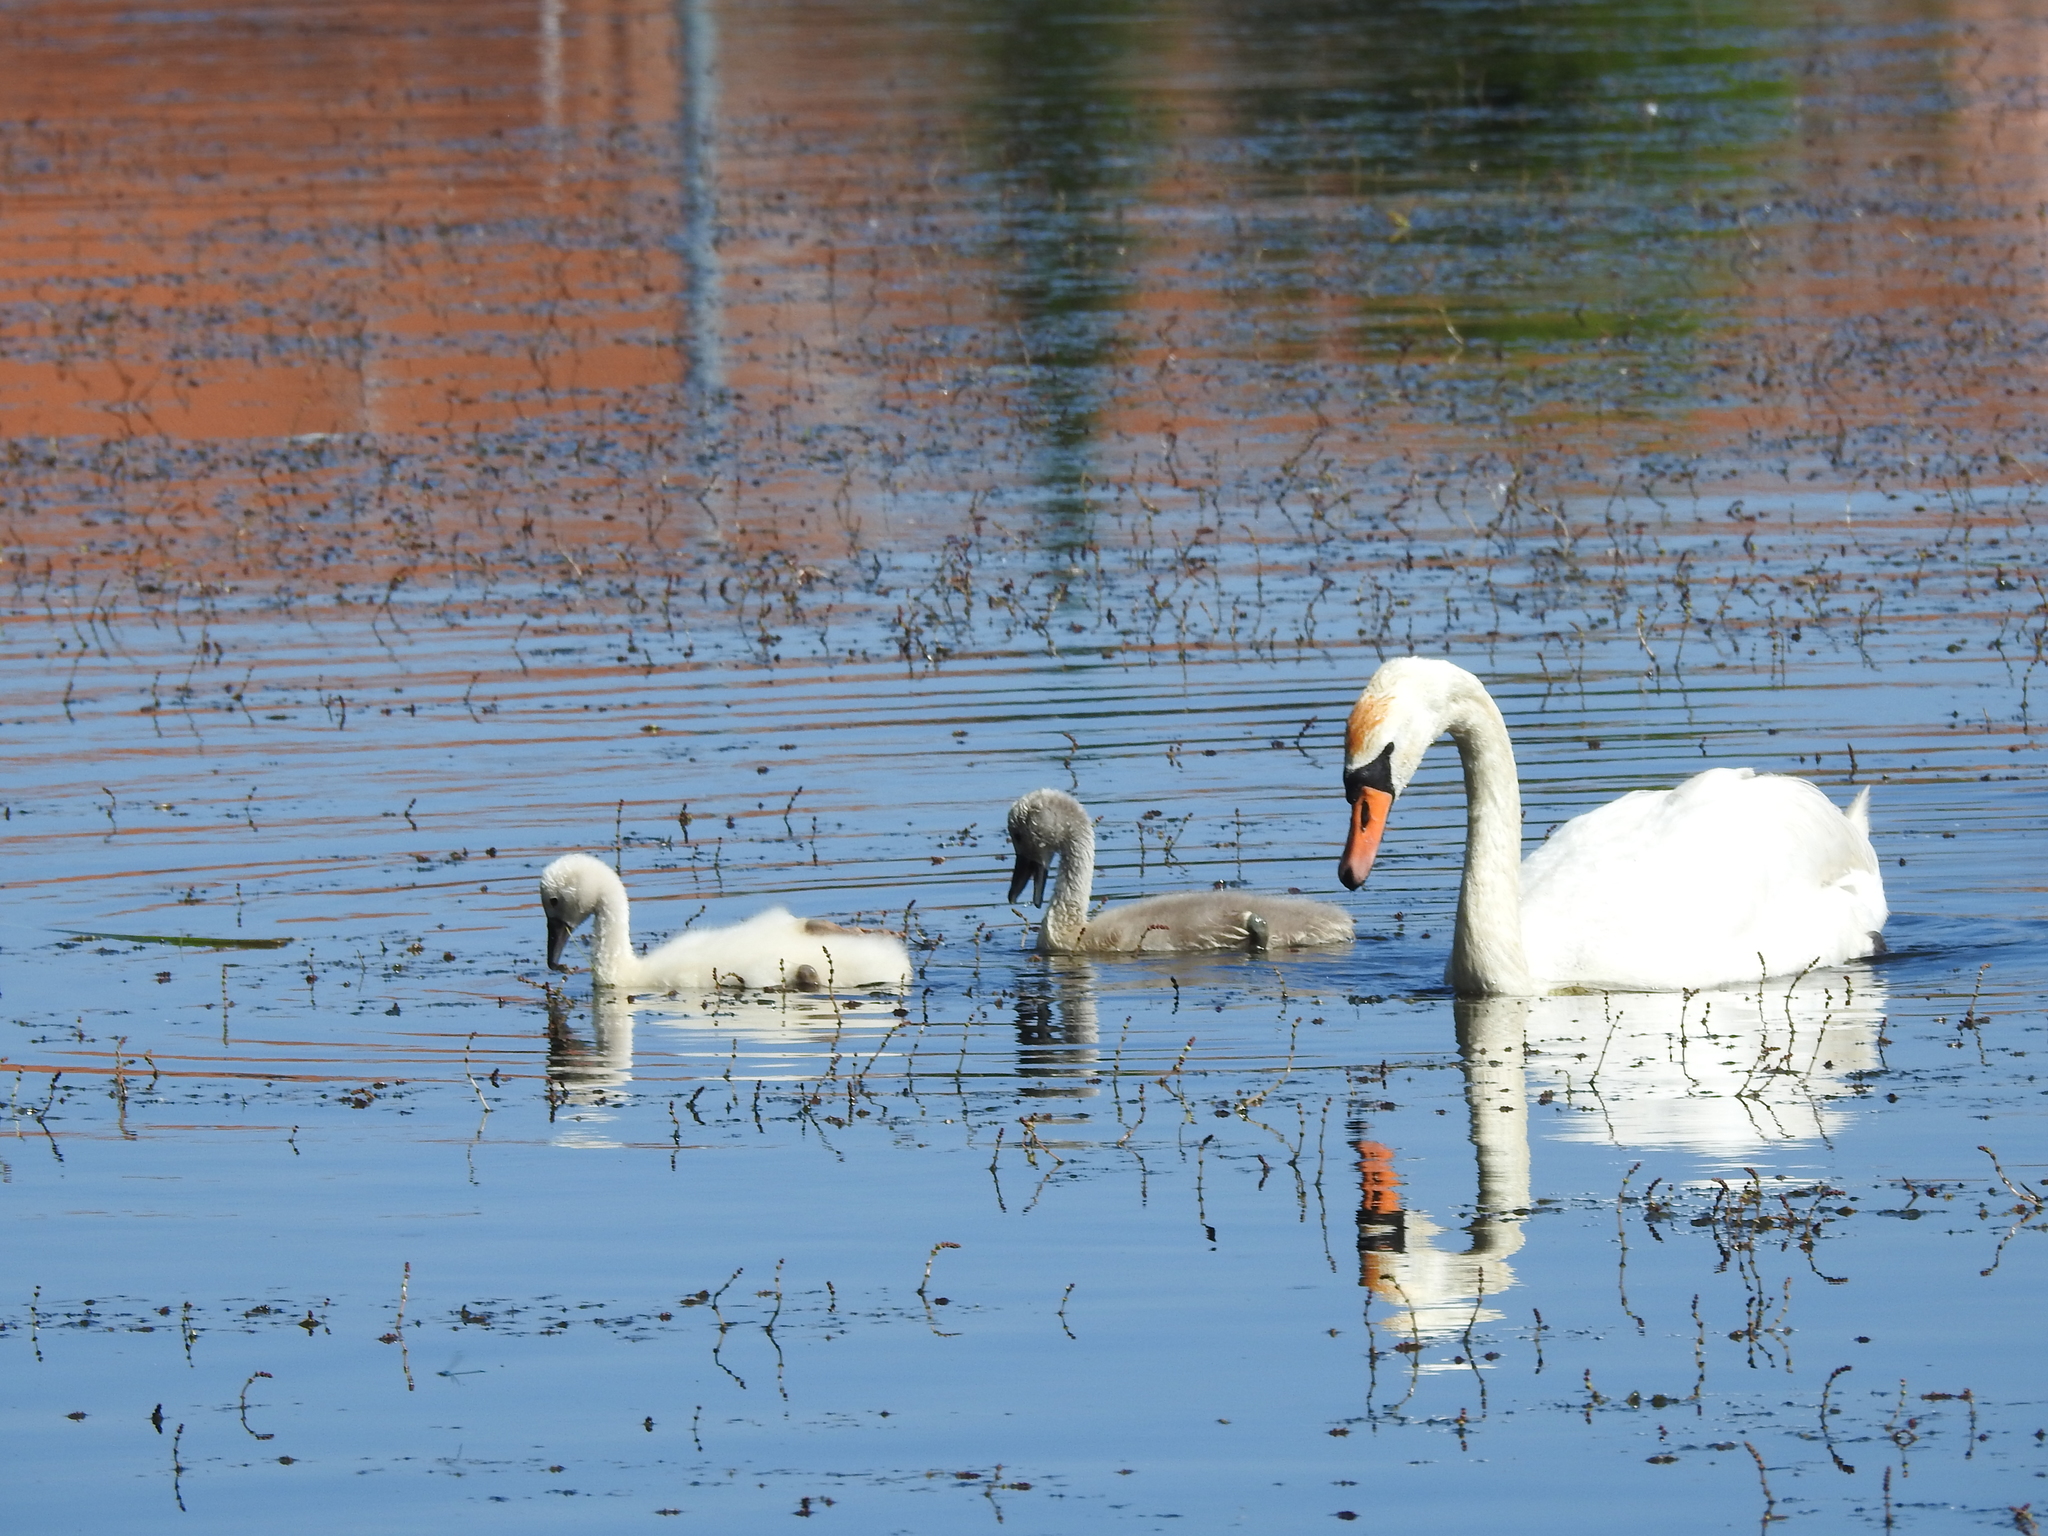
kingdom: Animalia
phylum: Chordata
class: Aves
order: Anseriformes
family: Anatidae
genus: Cygnus
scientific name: Cygnus olor
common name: Mute swan
